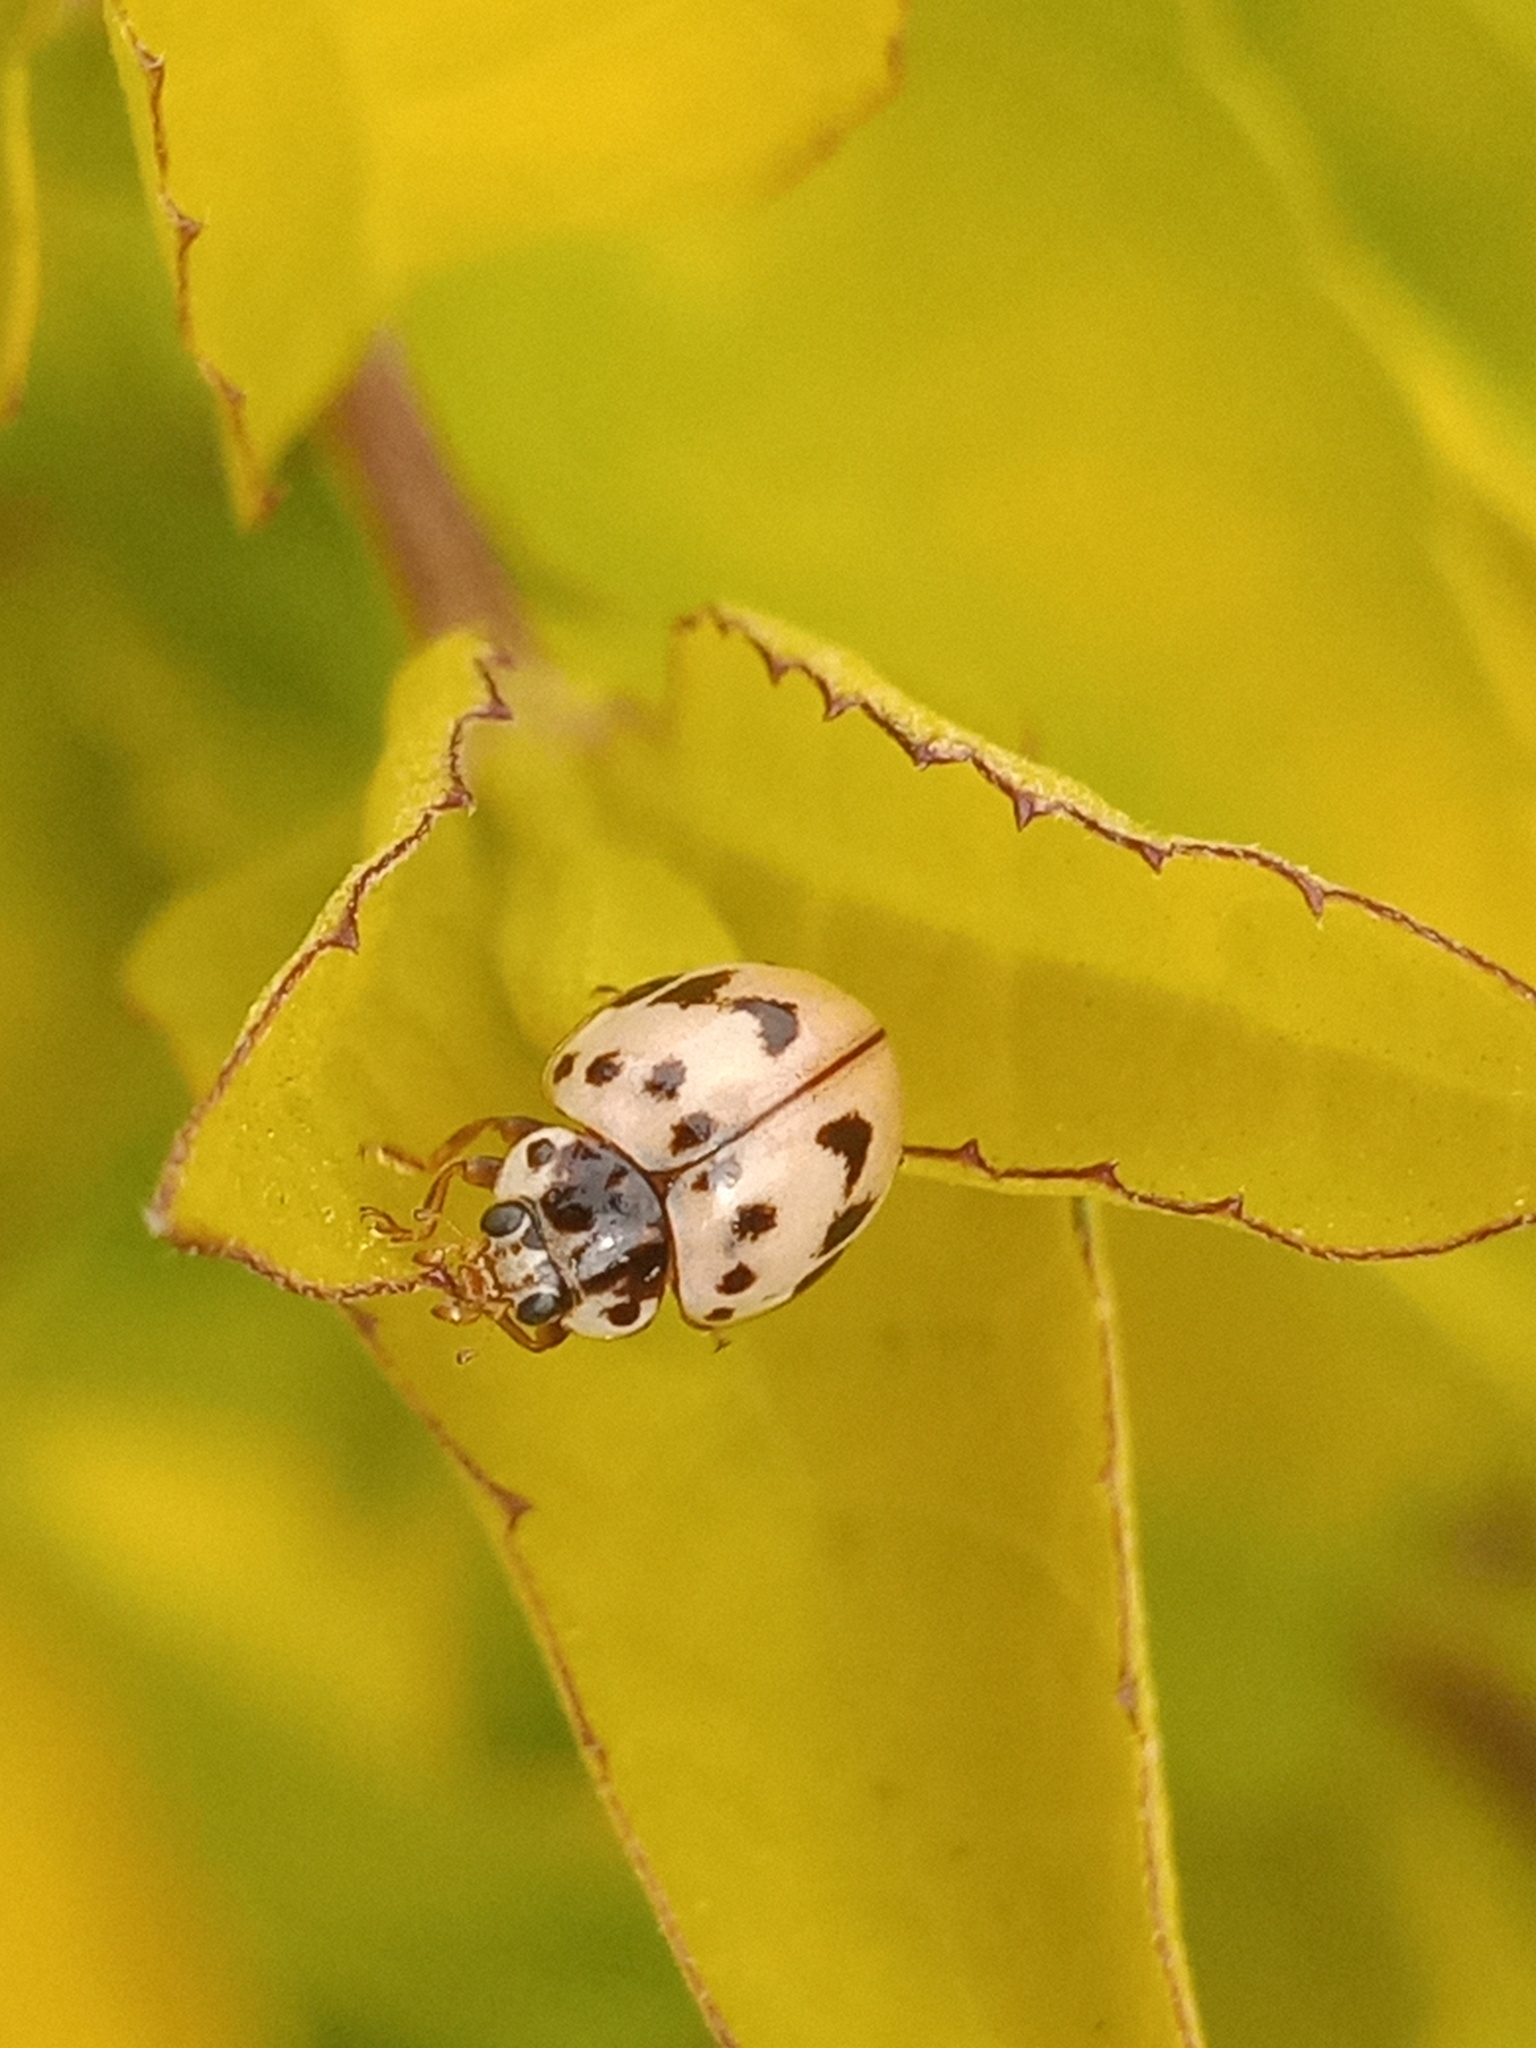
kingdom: Animalia
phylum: Arthropoda
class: Insecta
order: Coleoptera
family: Coccinellidae
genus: Olla
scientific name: Olla v-nigrum
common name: Ashy gray lady beetle
